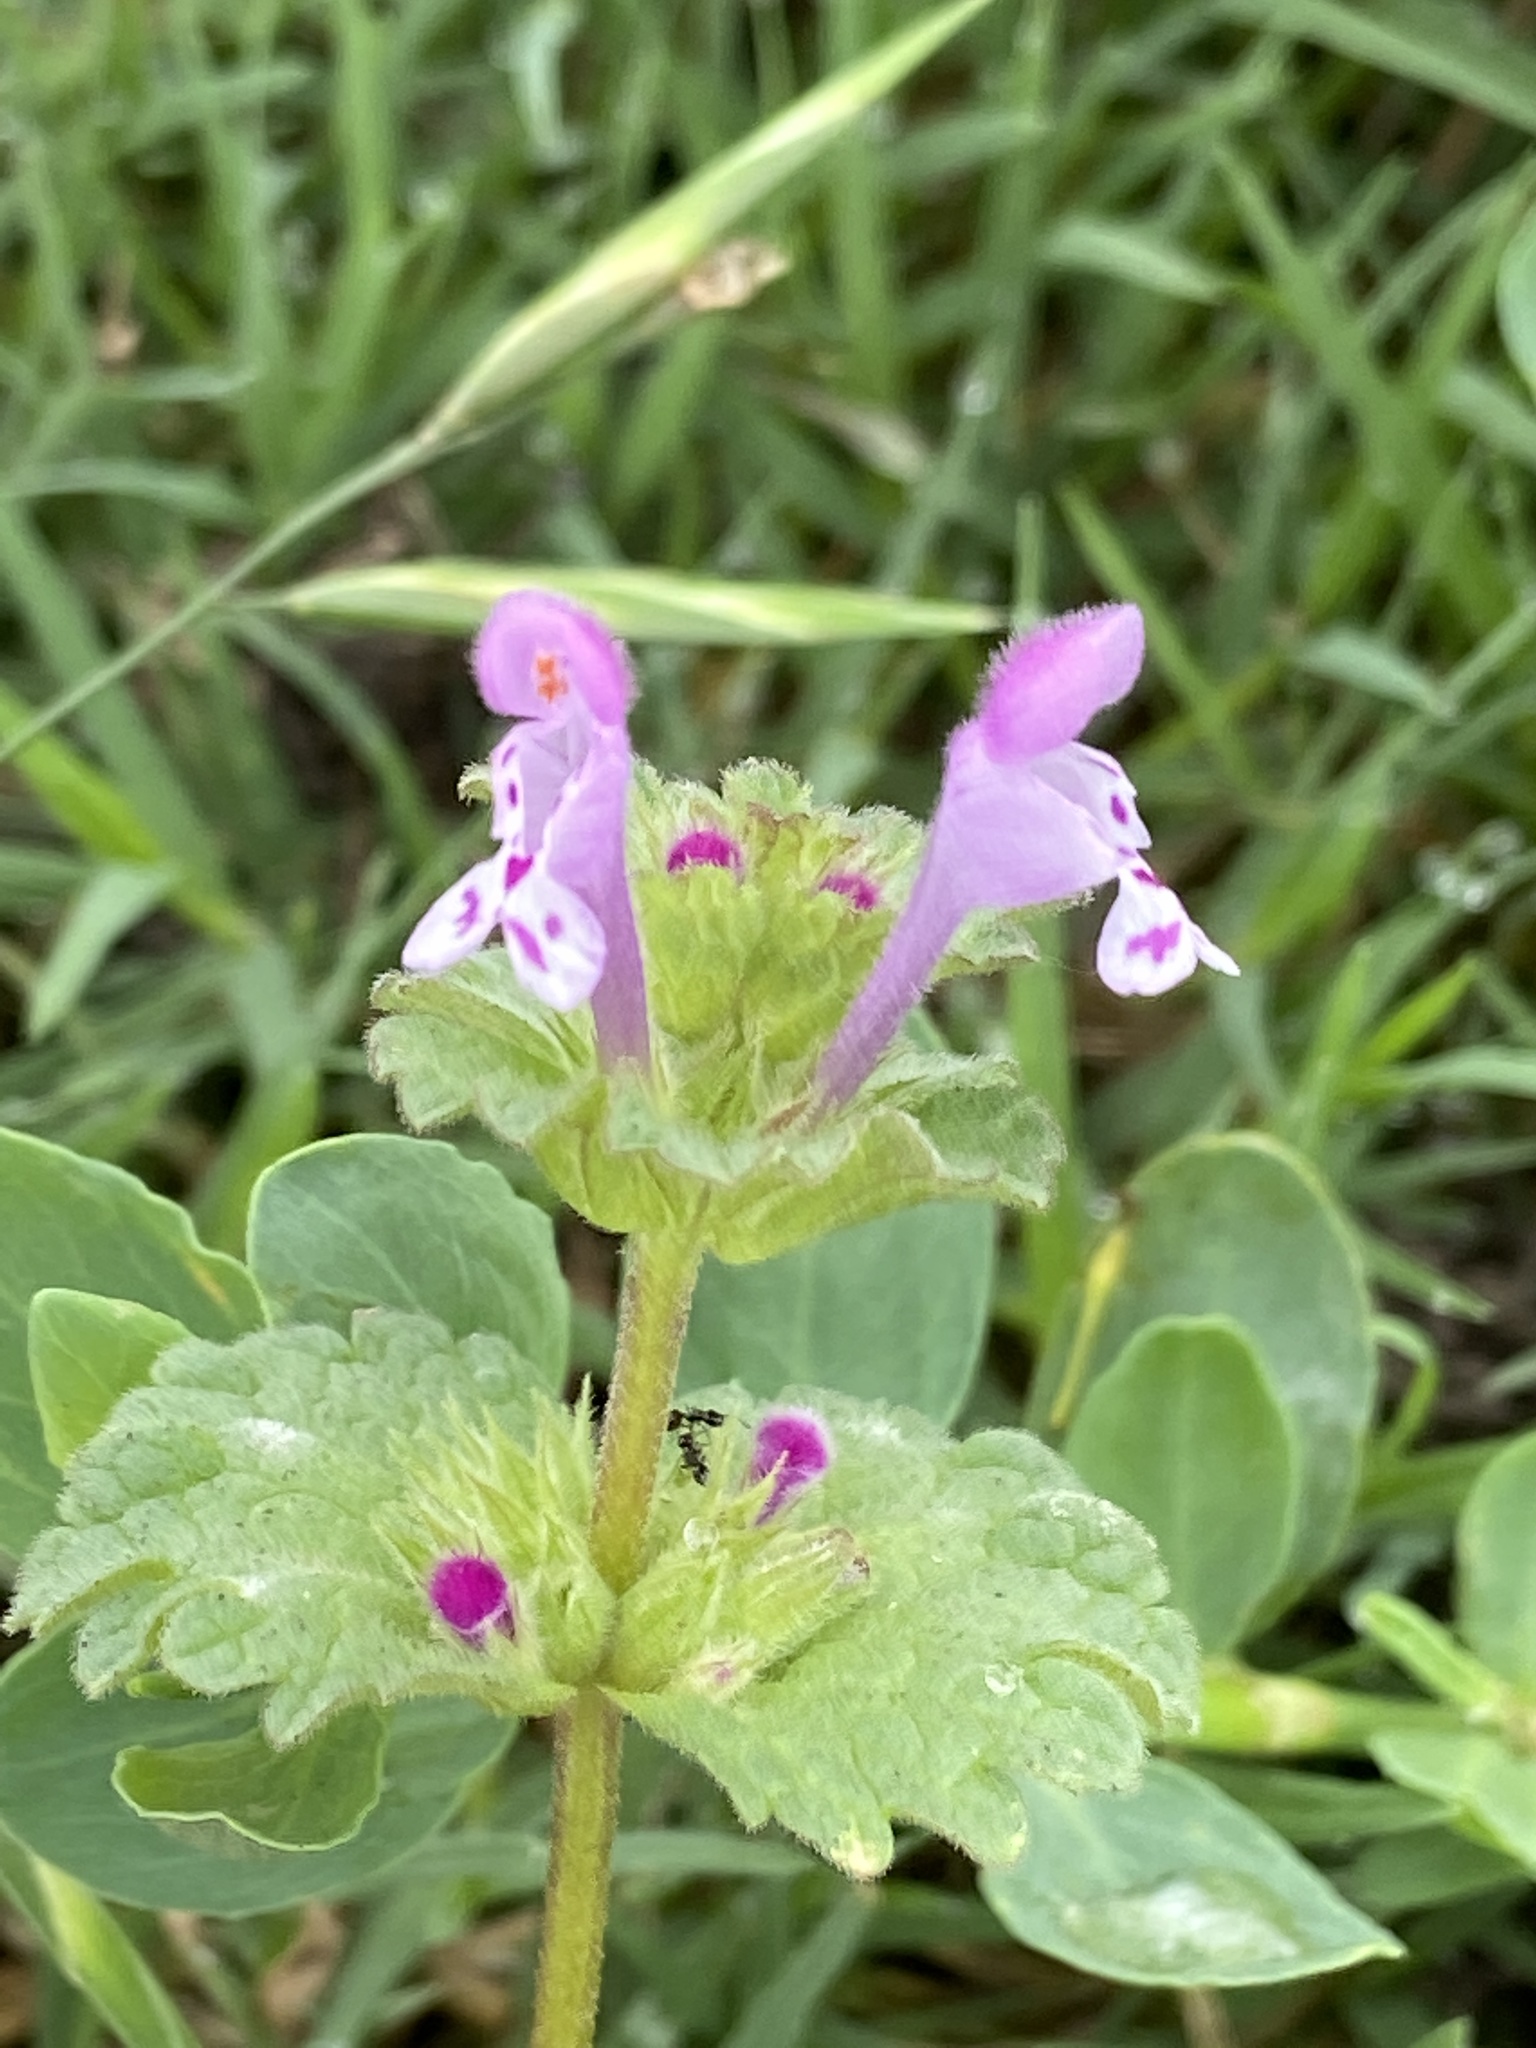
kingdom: Plantae
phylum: Tracheophyta
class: Magnoliopsida
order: Lamiales
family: Lamiaceae
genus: Lamium
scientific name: Lamium amplexicaule
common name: Henbit dead-nettle
